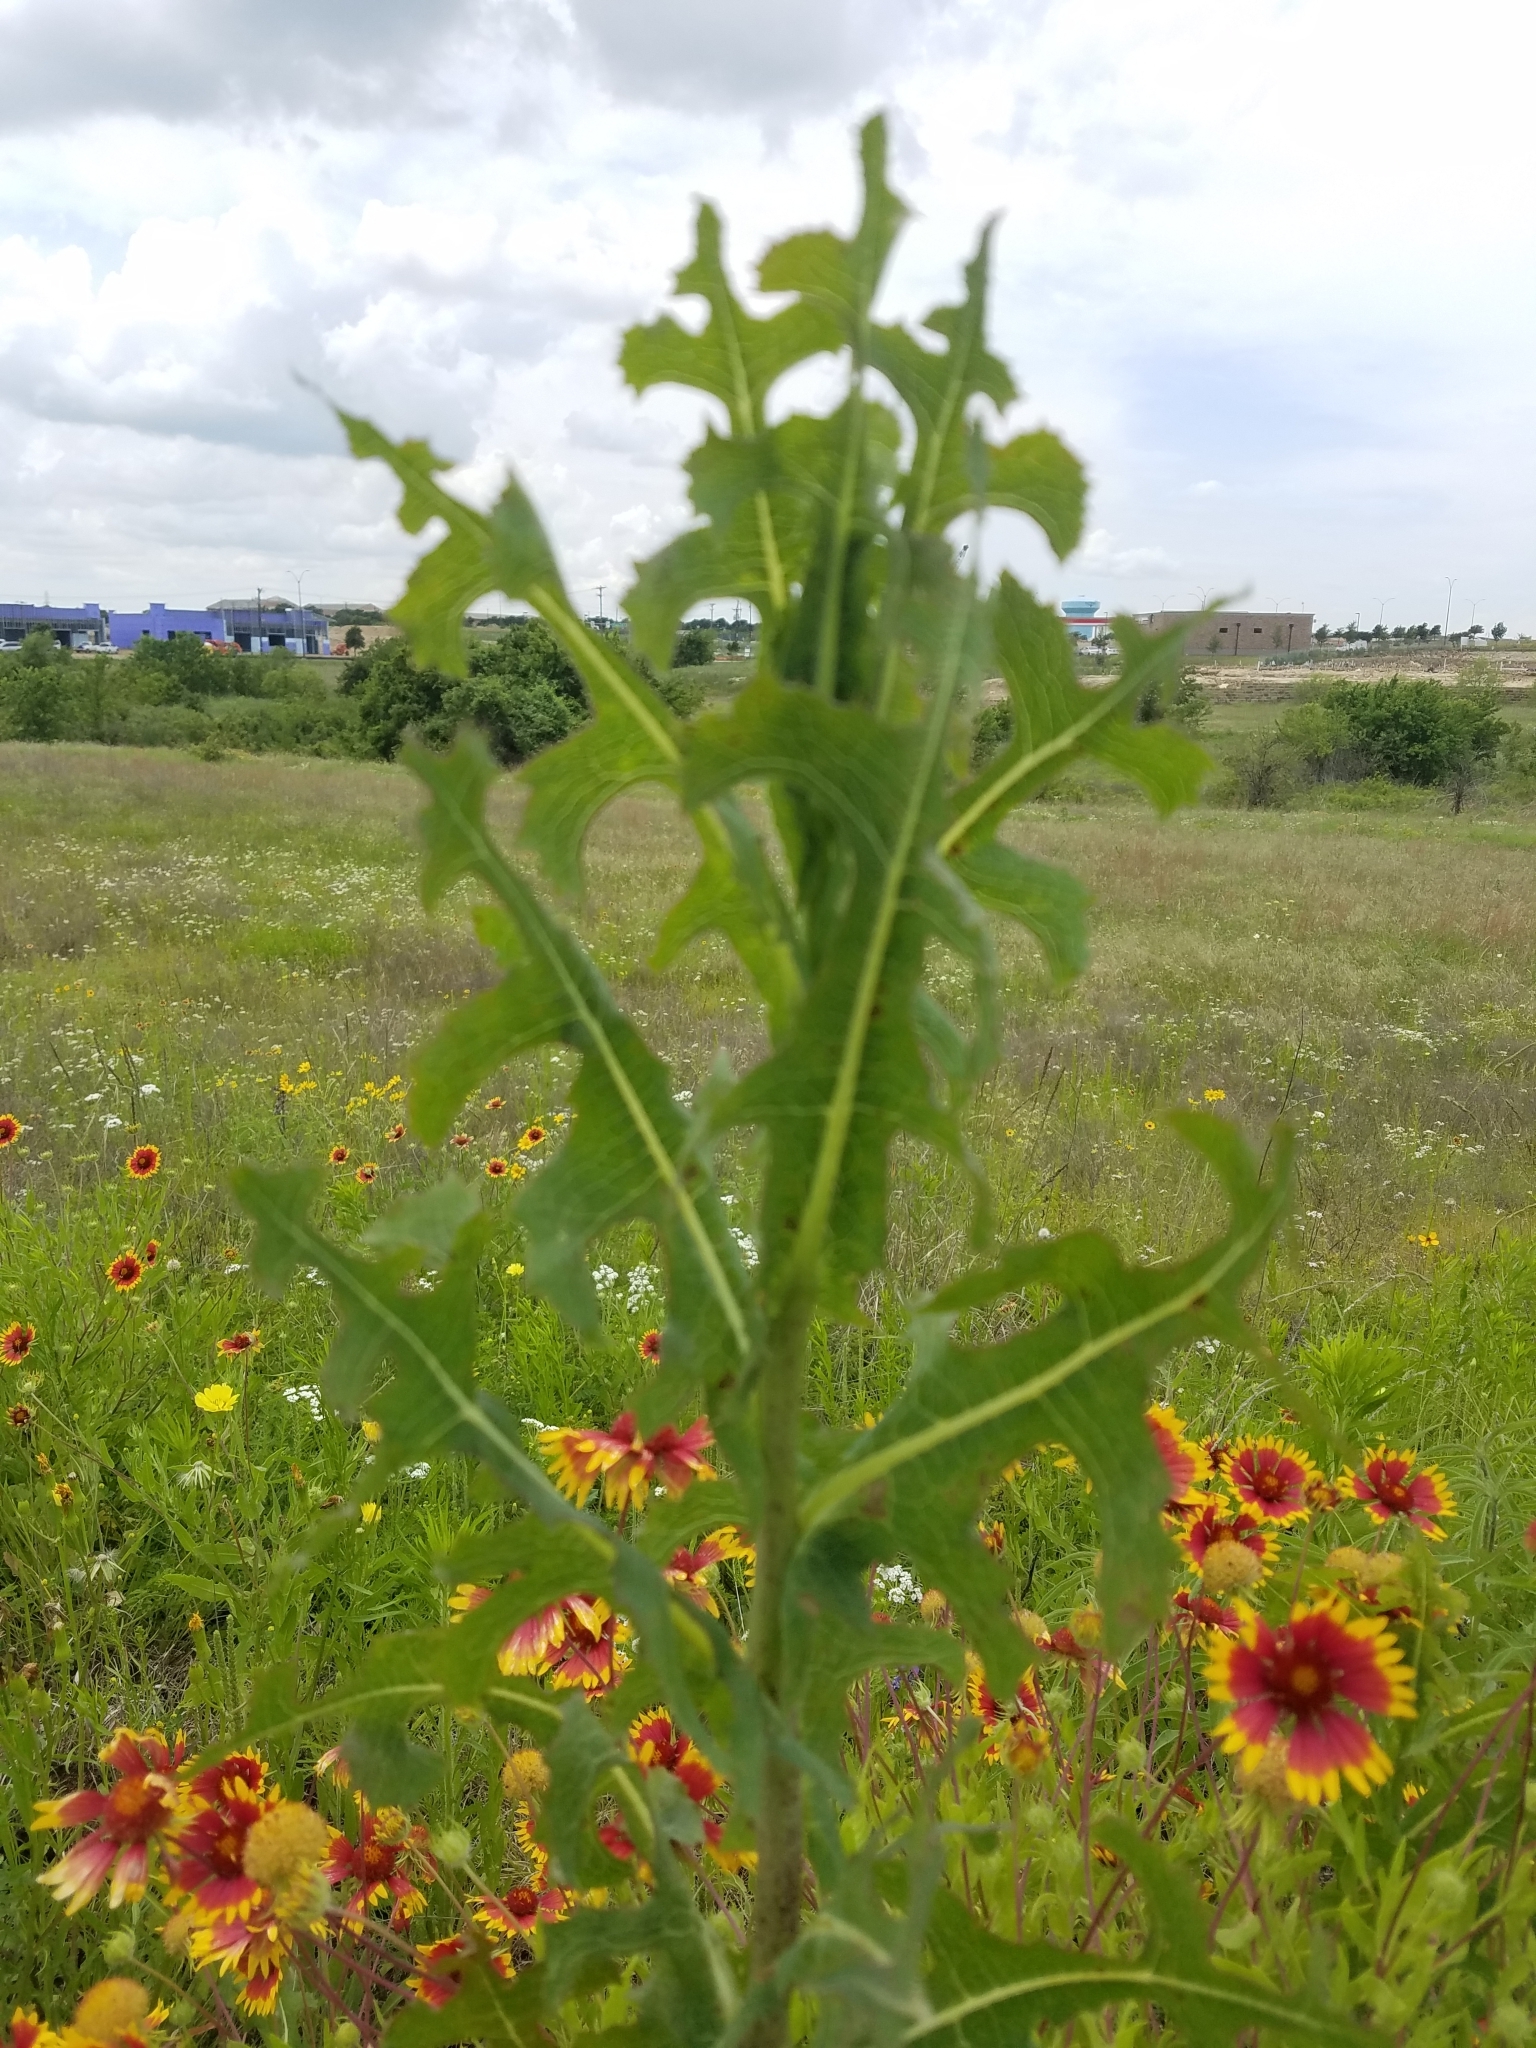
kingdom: Plantae
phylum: Tracheophyta
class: Magnoliopsida
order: Asterales
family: Asteraceae
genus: Lactuca
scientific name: Lactuca serriola
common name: Prickly lettuce
